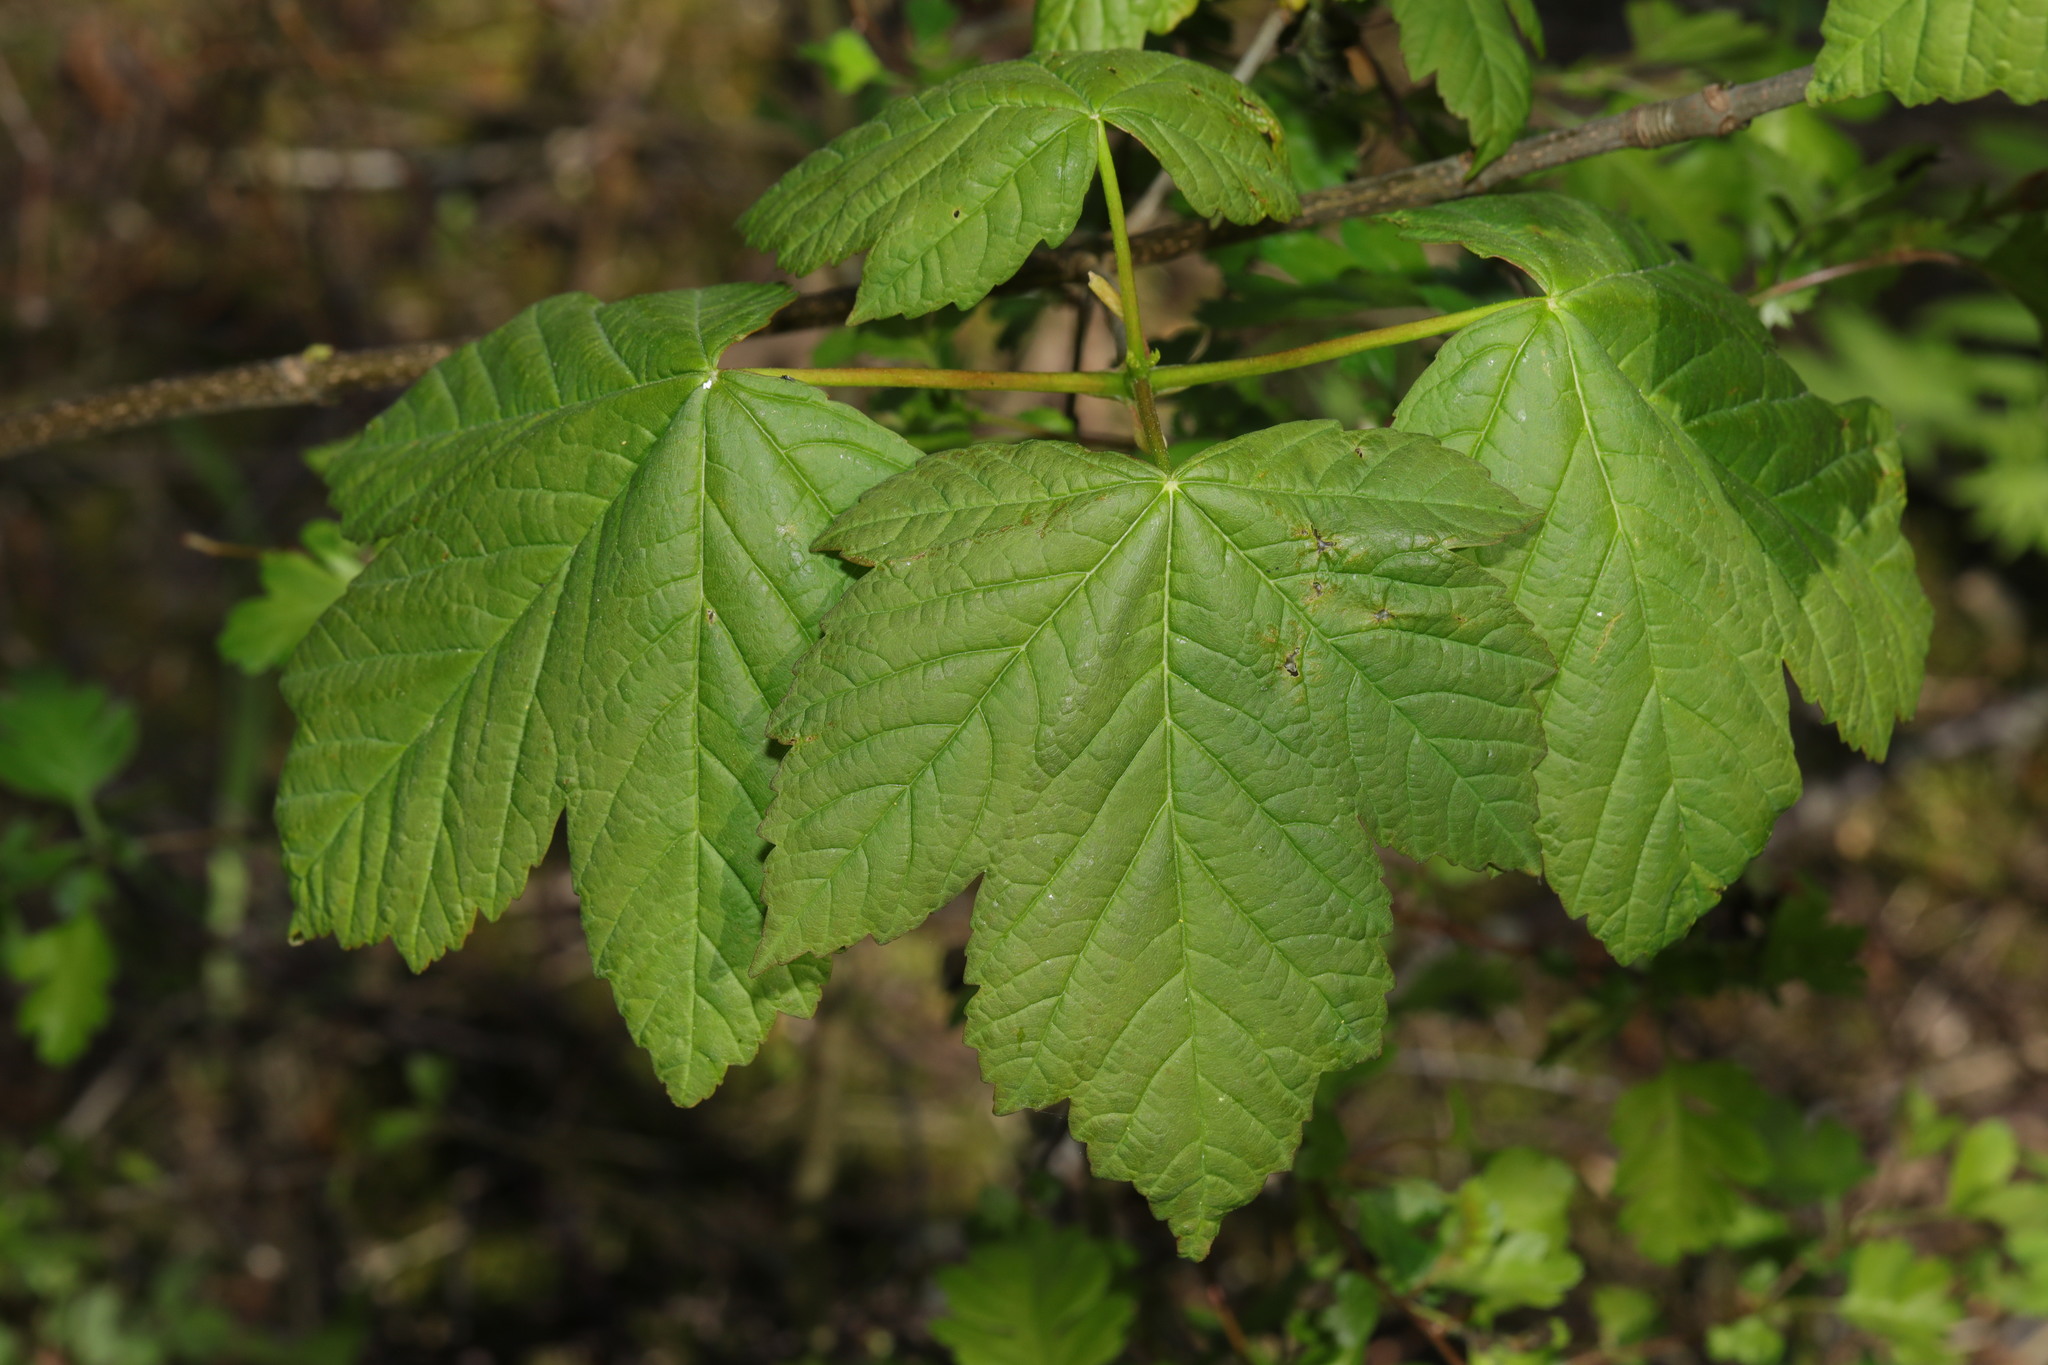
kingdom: Plantae
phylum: Tracheophyta
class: Magnoliopsida
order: Sapindales
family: Sapindaceae
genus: Acer
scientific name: Acer pseudoplatanus
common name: Sycamore
